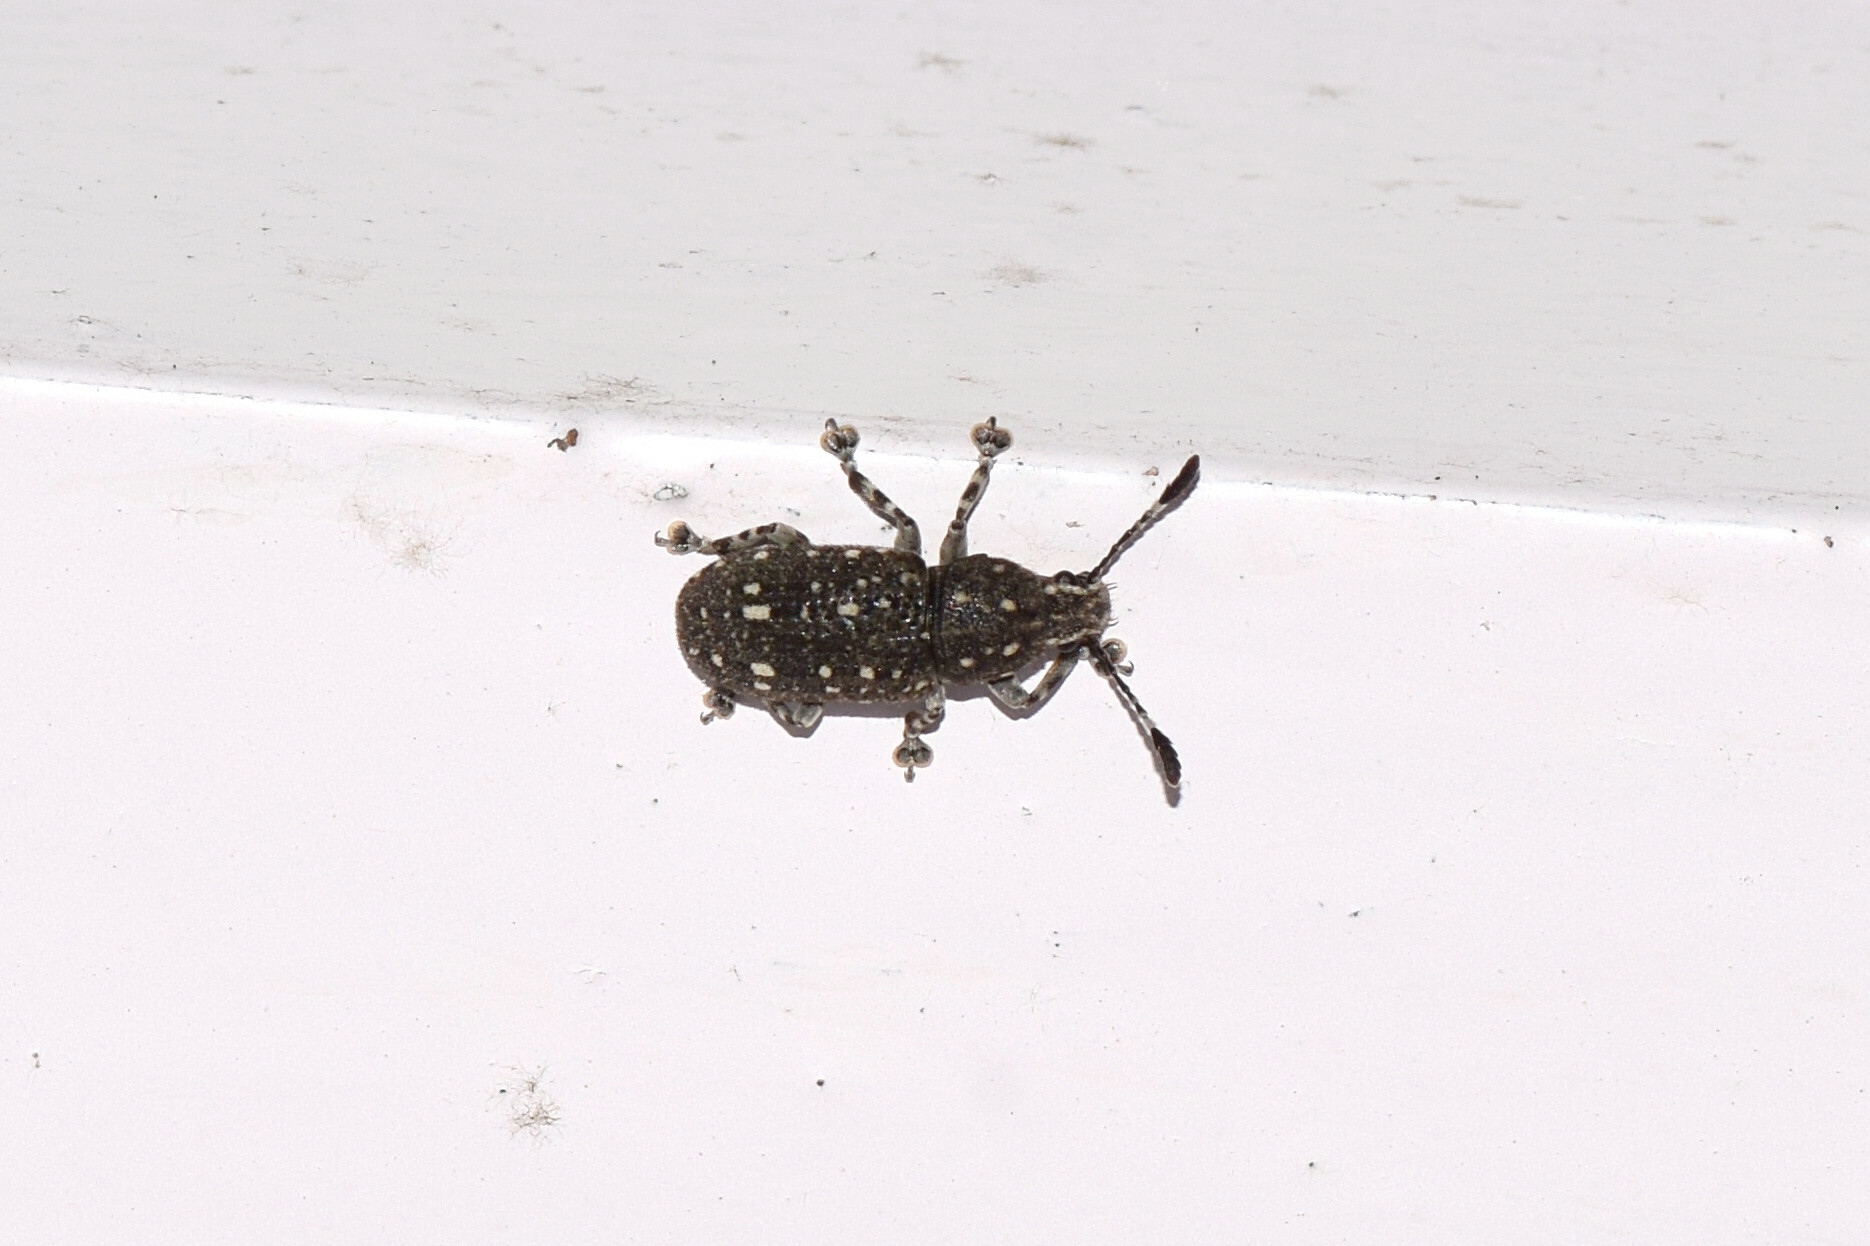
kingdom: Animalia
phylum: Arthropoda
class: Insecta
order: Coleoptera
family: Anthribidae
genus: Rawasia
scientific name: Rawasia annulipes
